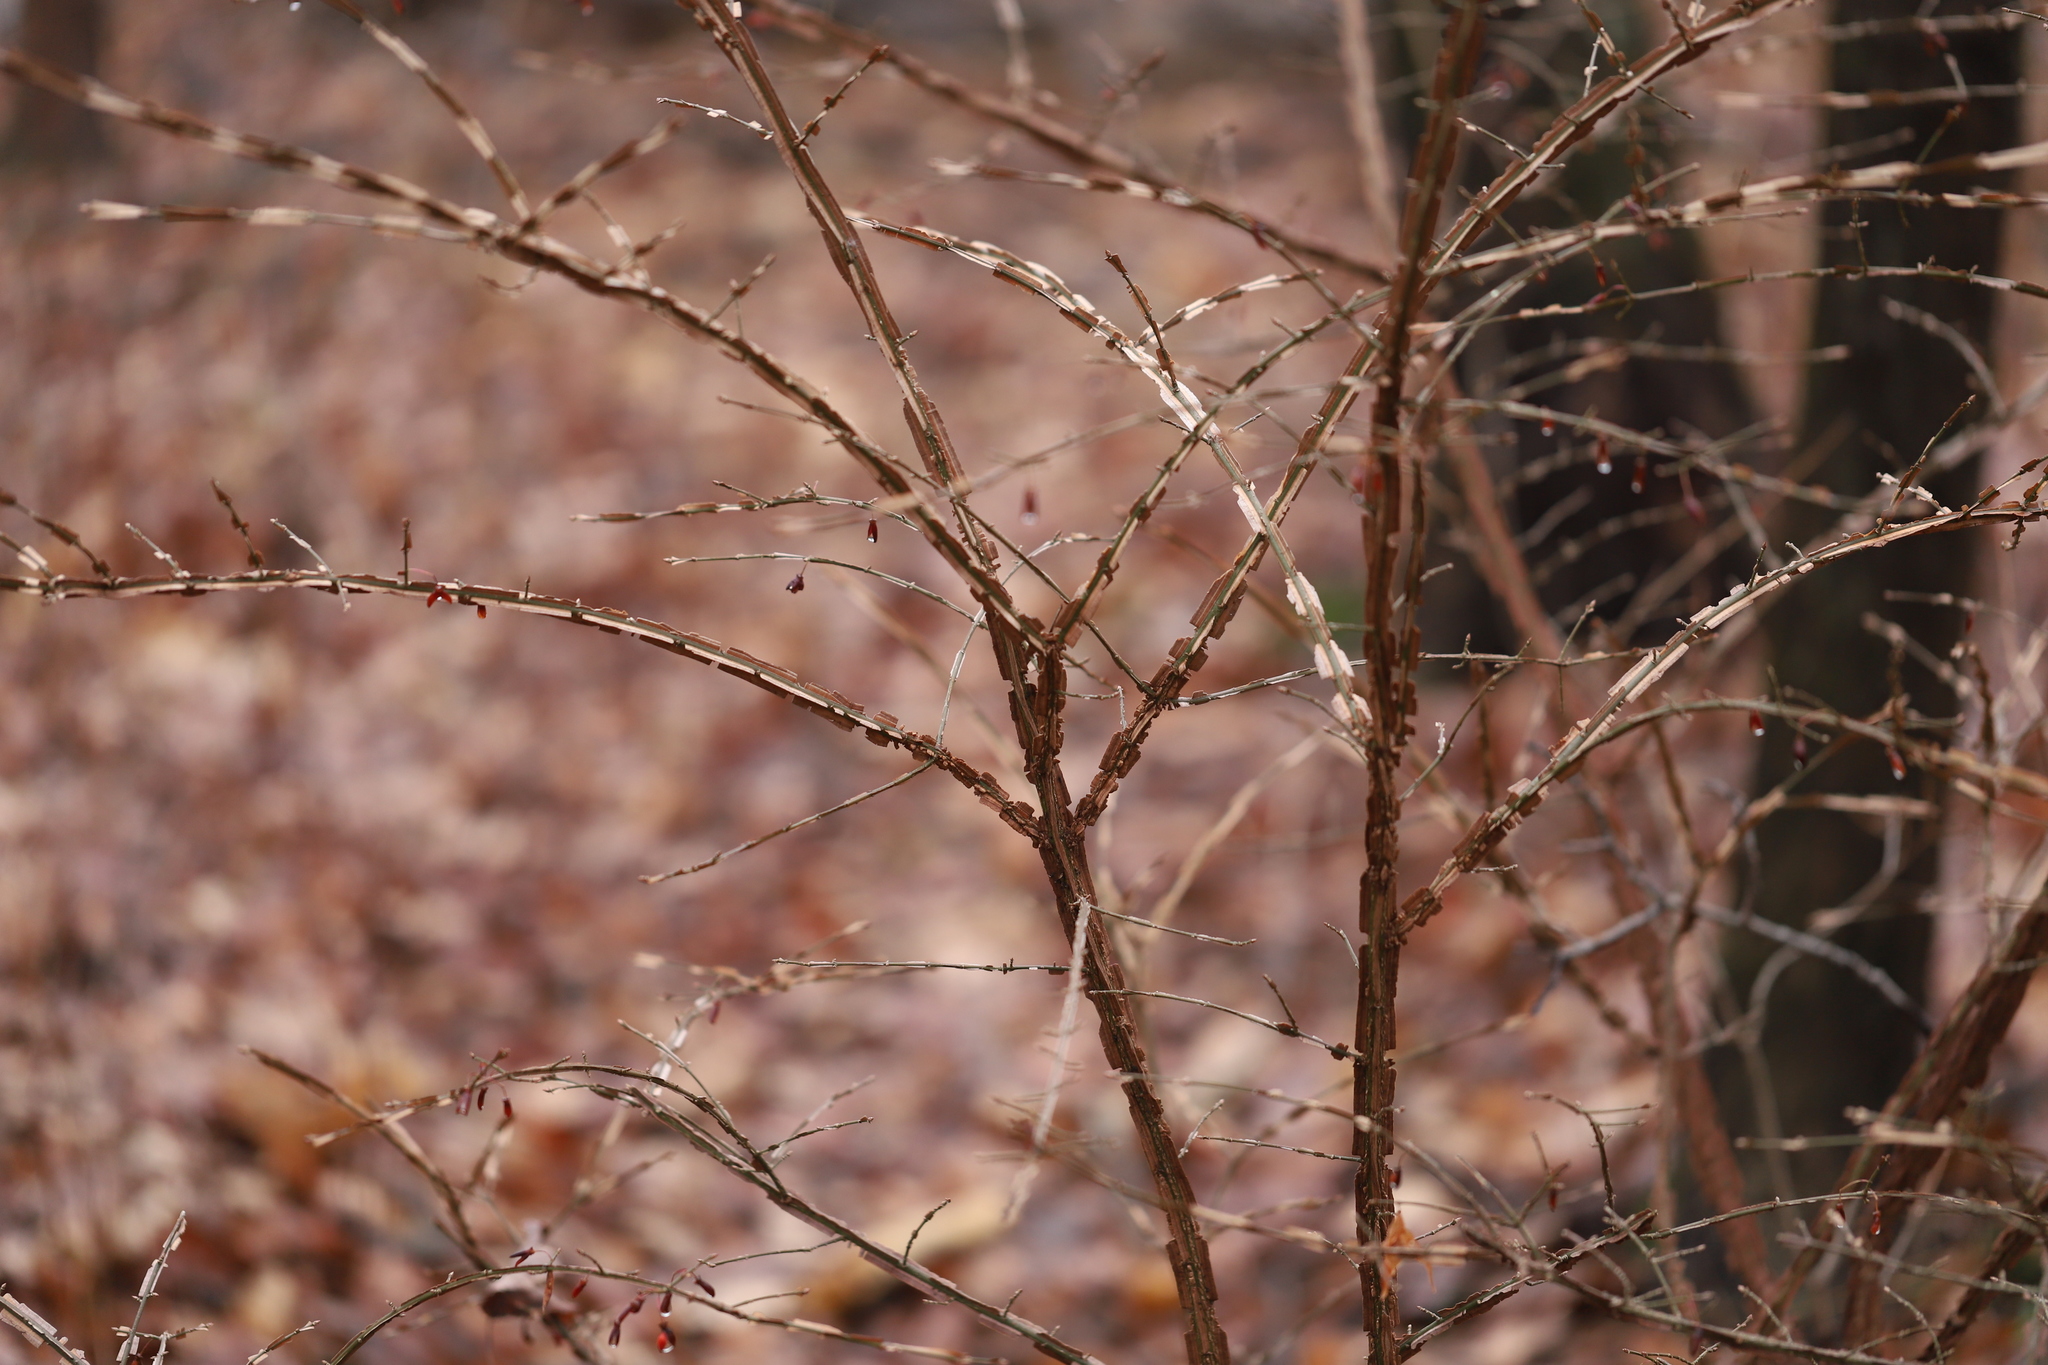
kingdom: Plantae
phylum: Tracheophyta
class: Magnoliopsida
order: Celastrales
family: Celastraceae
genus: Euonymus
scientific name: Euonymus alatus
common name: Winged euonymus
